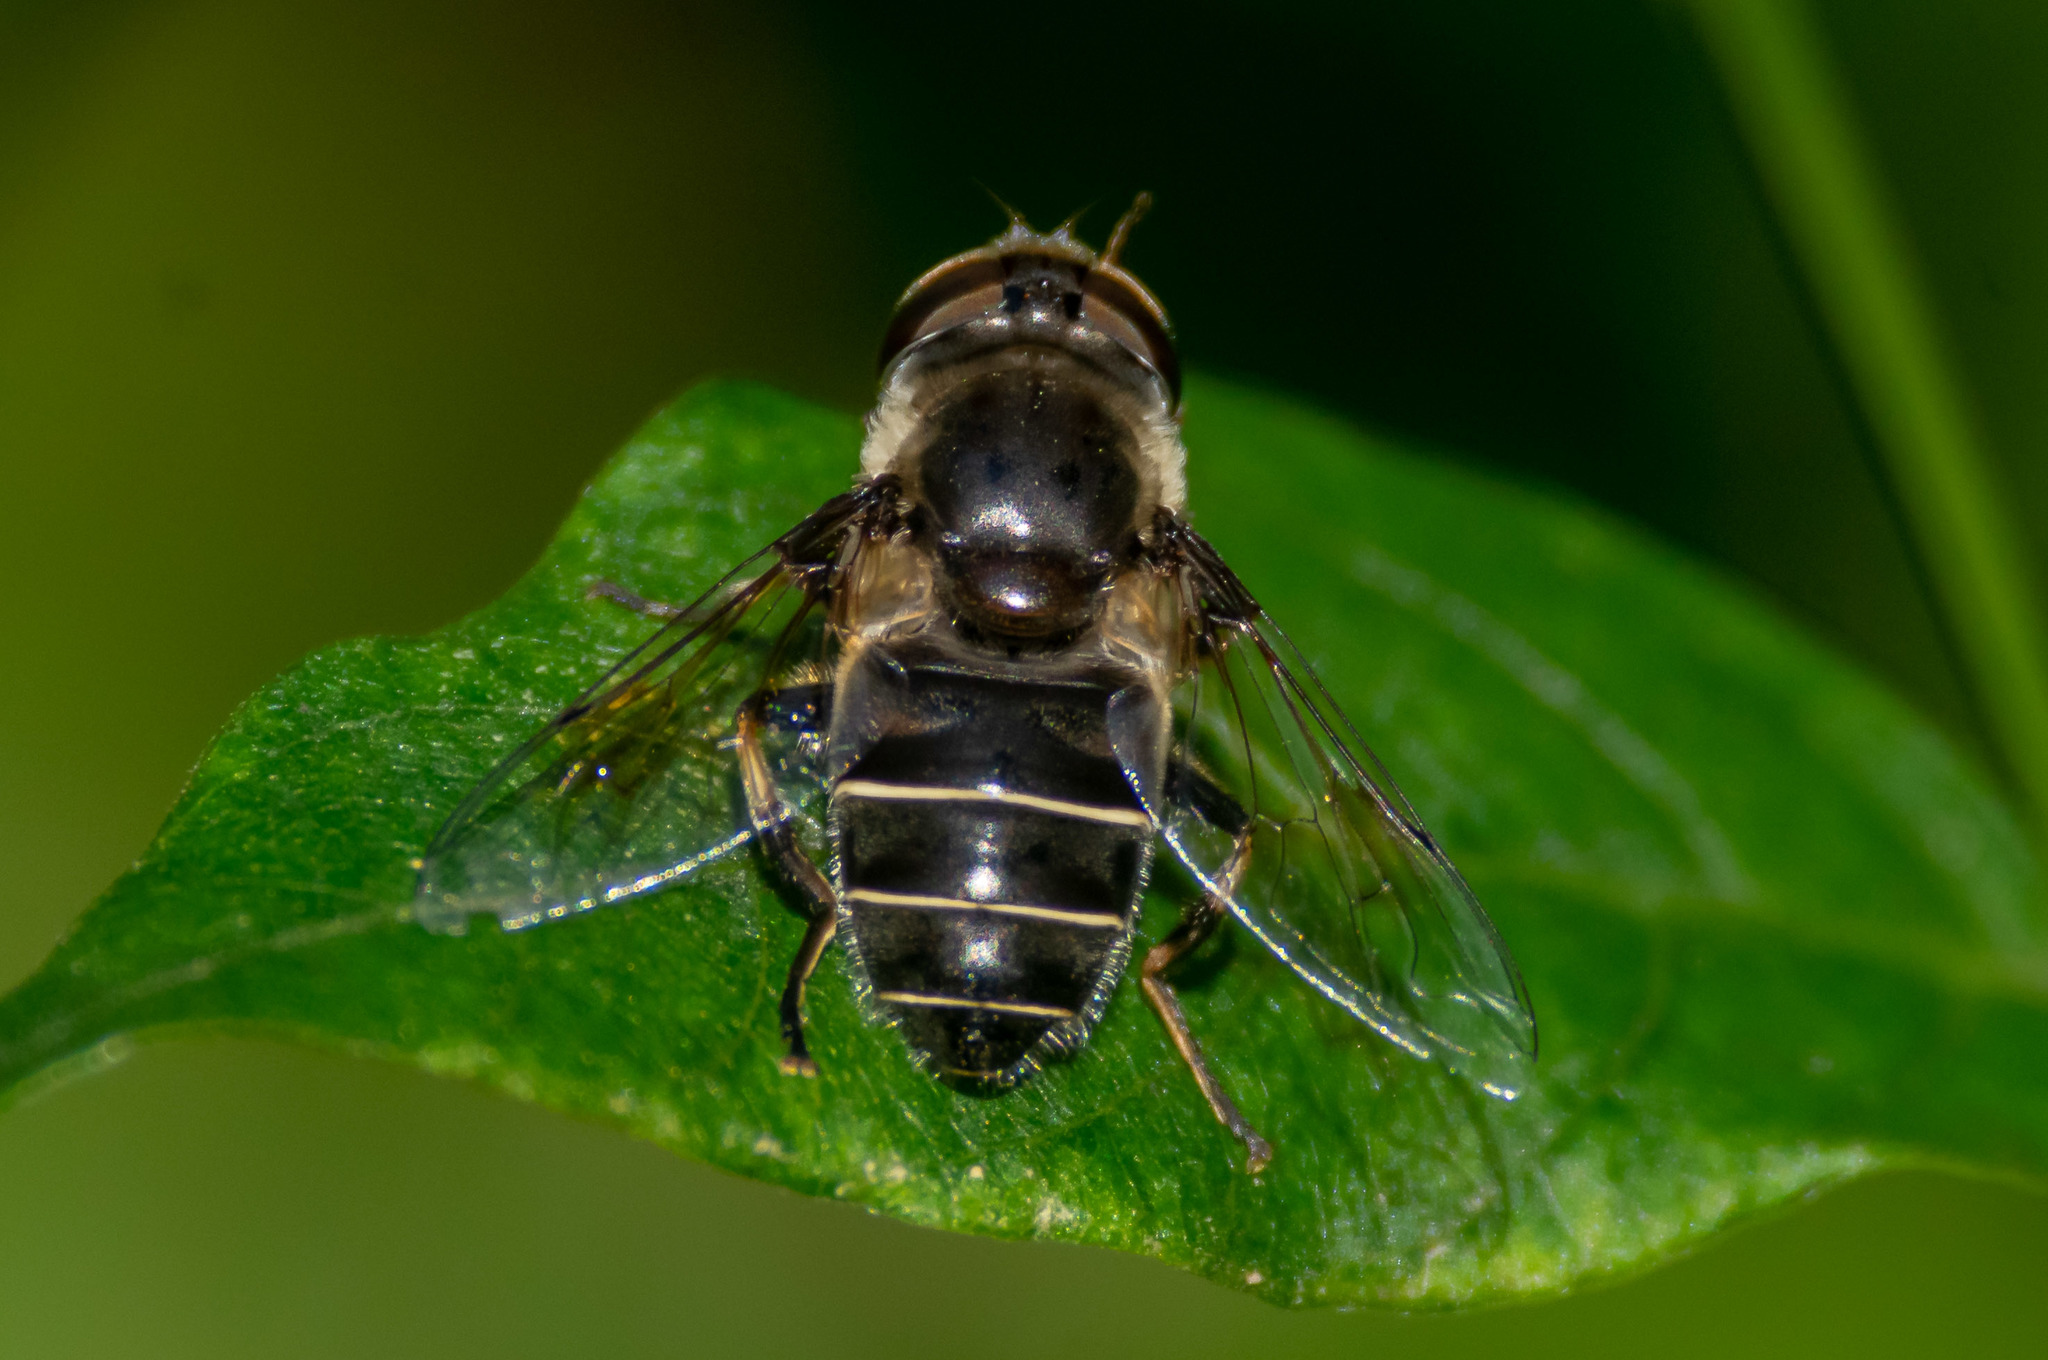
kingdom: Animalia
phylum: Arthropoda
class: Insecta
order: Diptera
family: Syrphidae
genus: Eristalis
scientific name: Eristalis dimidiata
